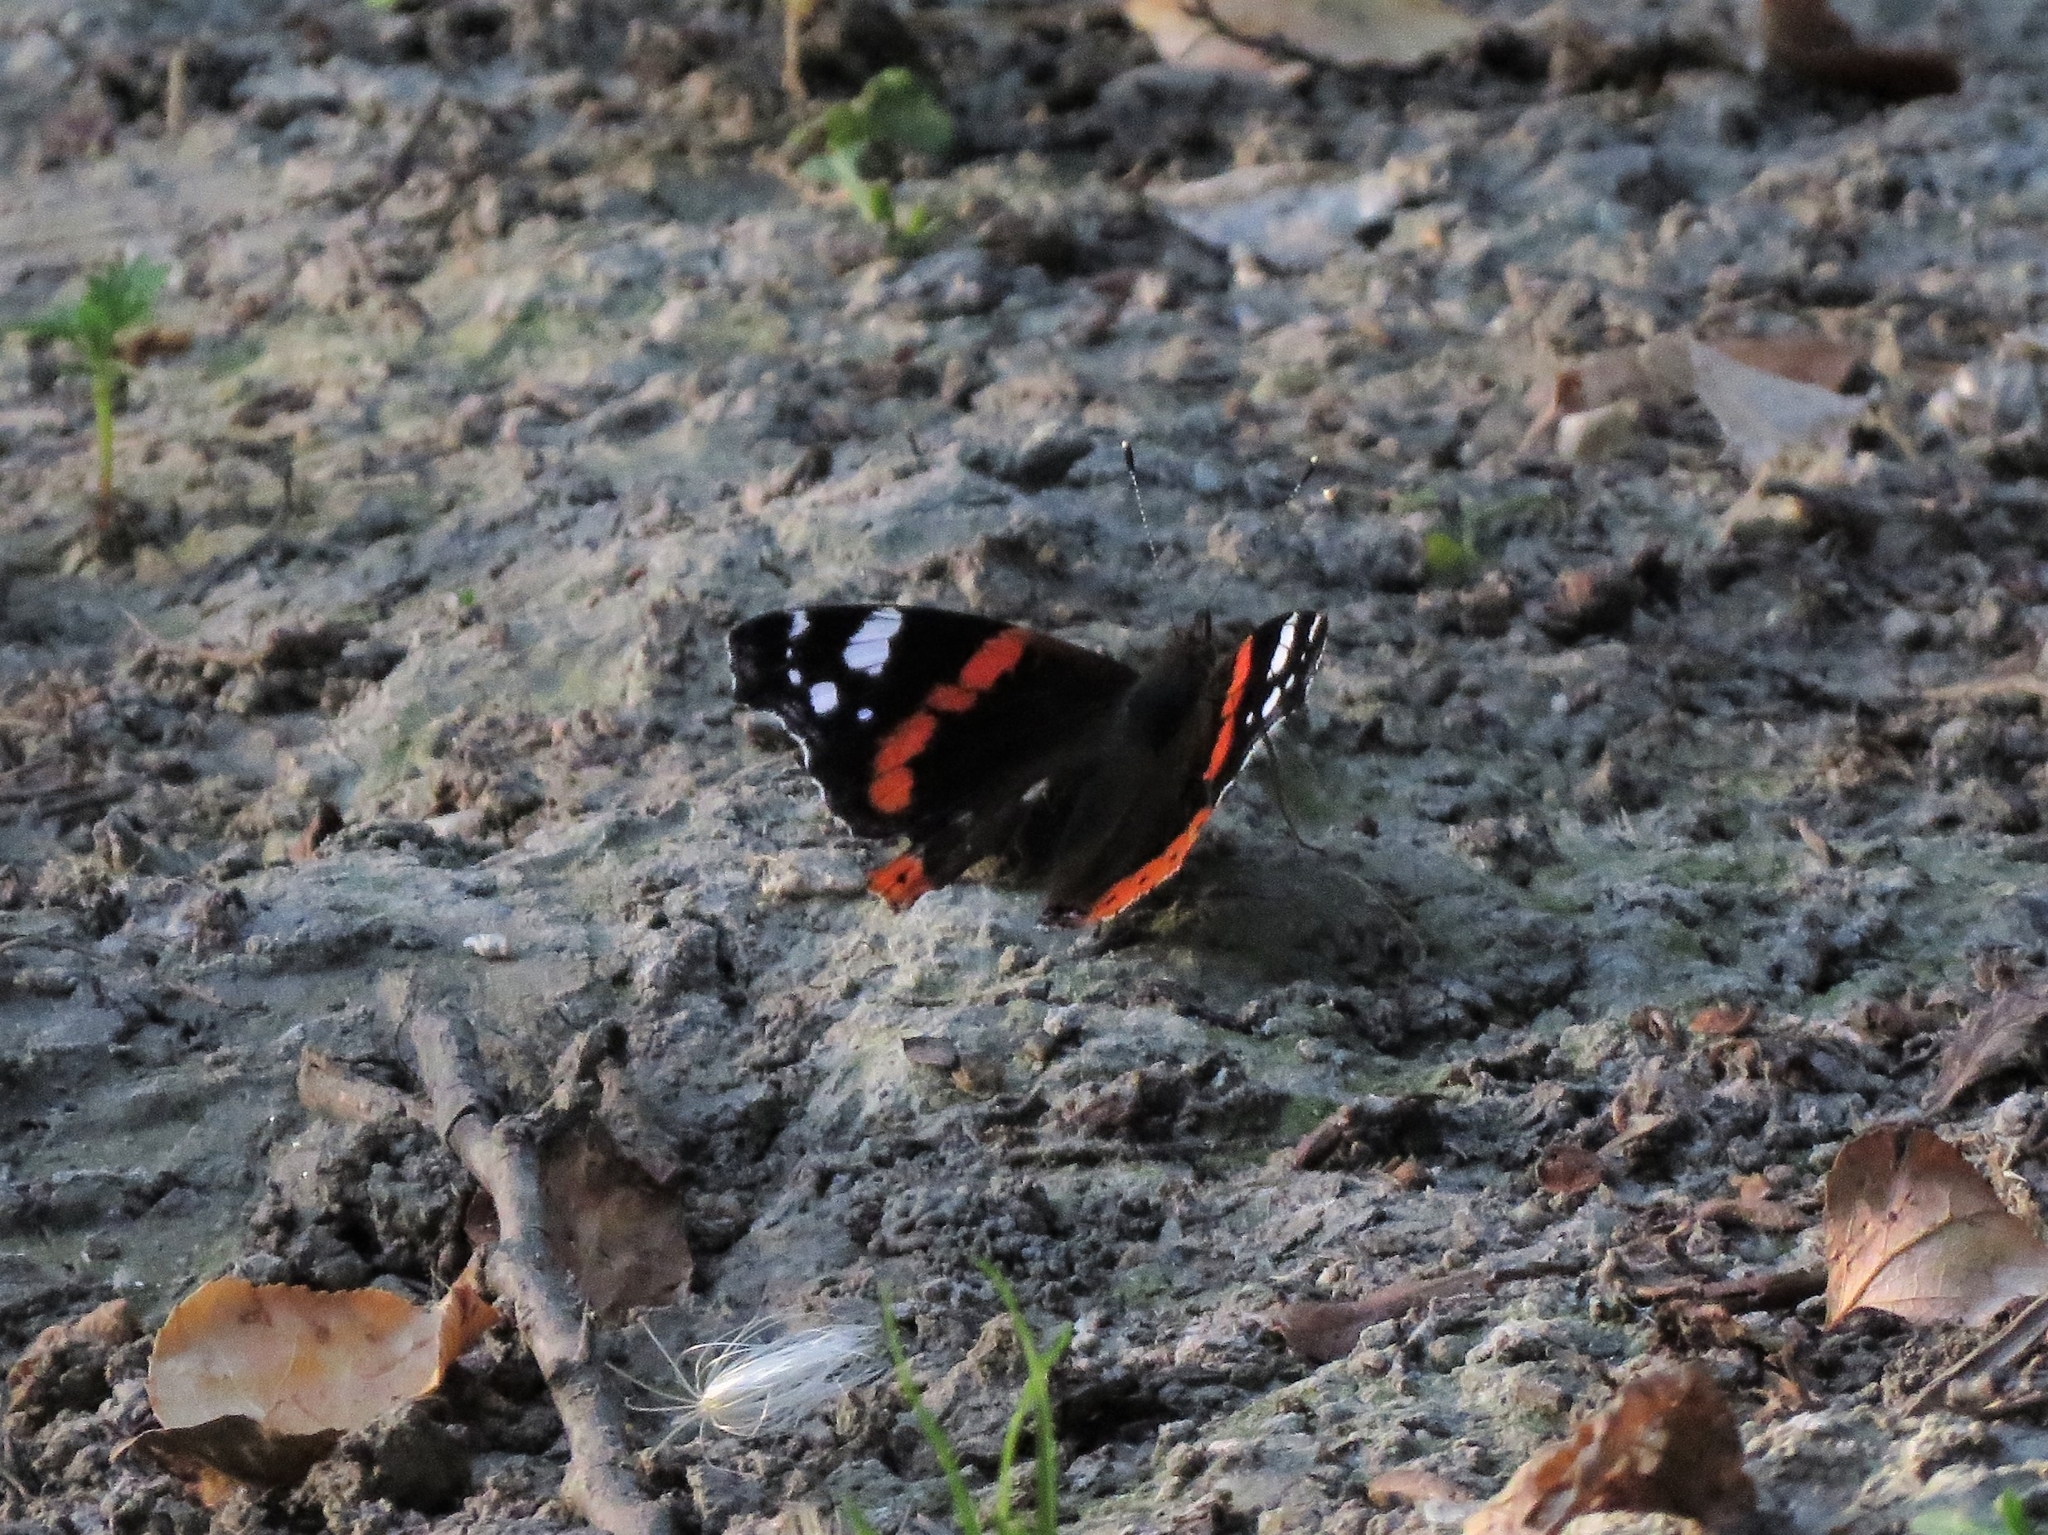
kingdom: Animalia
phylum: Arthropoda
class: Insecta
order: Lepidoptera
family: Nymphalidae
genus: Vanessa
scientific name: Vanessa atalanta
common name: Red admiral
